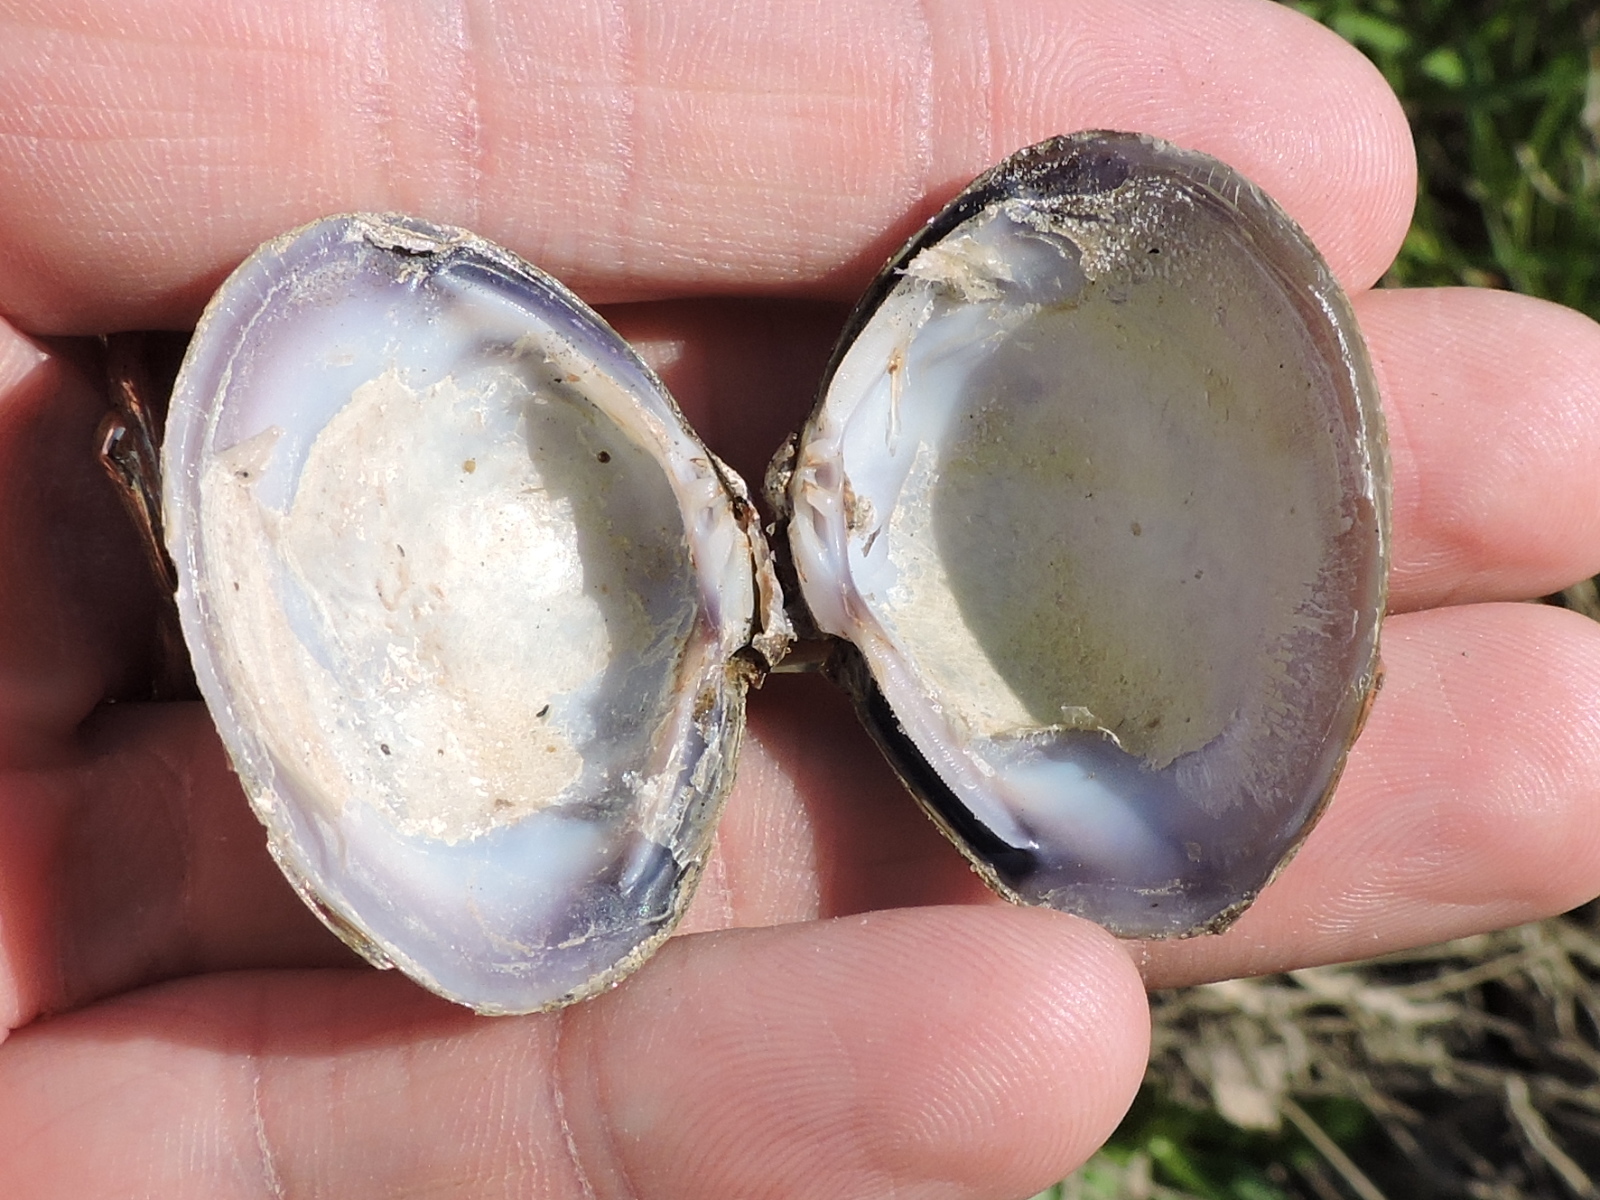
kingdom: Animalia
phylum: Mollusca
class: Bivalvia
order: Venerida
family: Cyrenidae
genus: Corbicula
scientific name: Corbicula fluminea
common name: Asian clam
